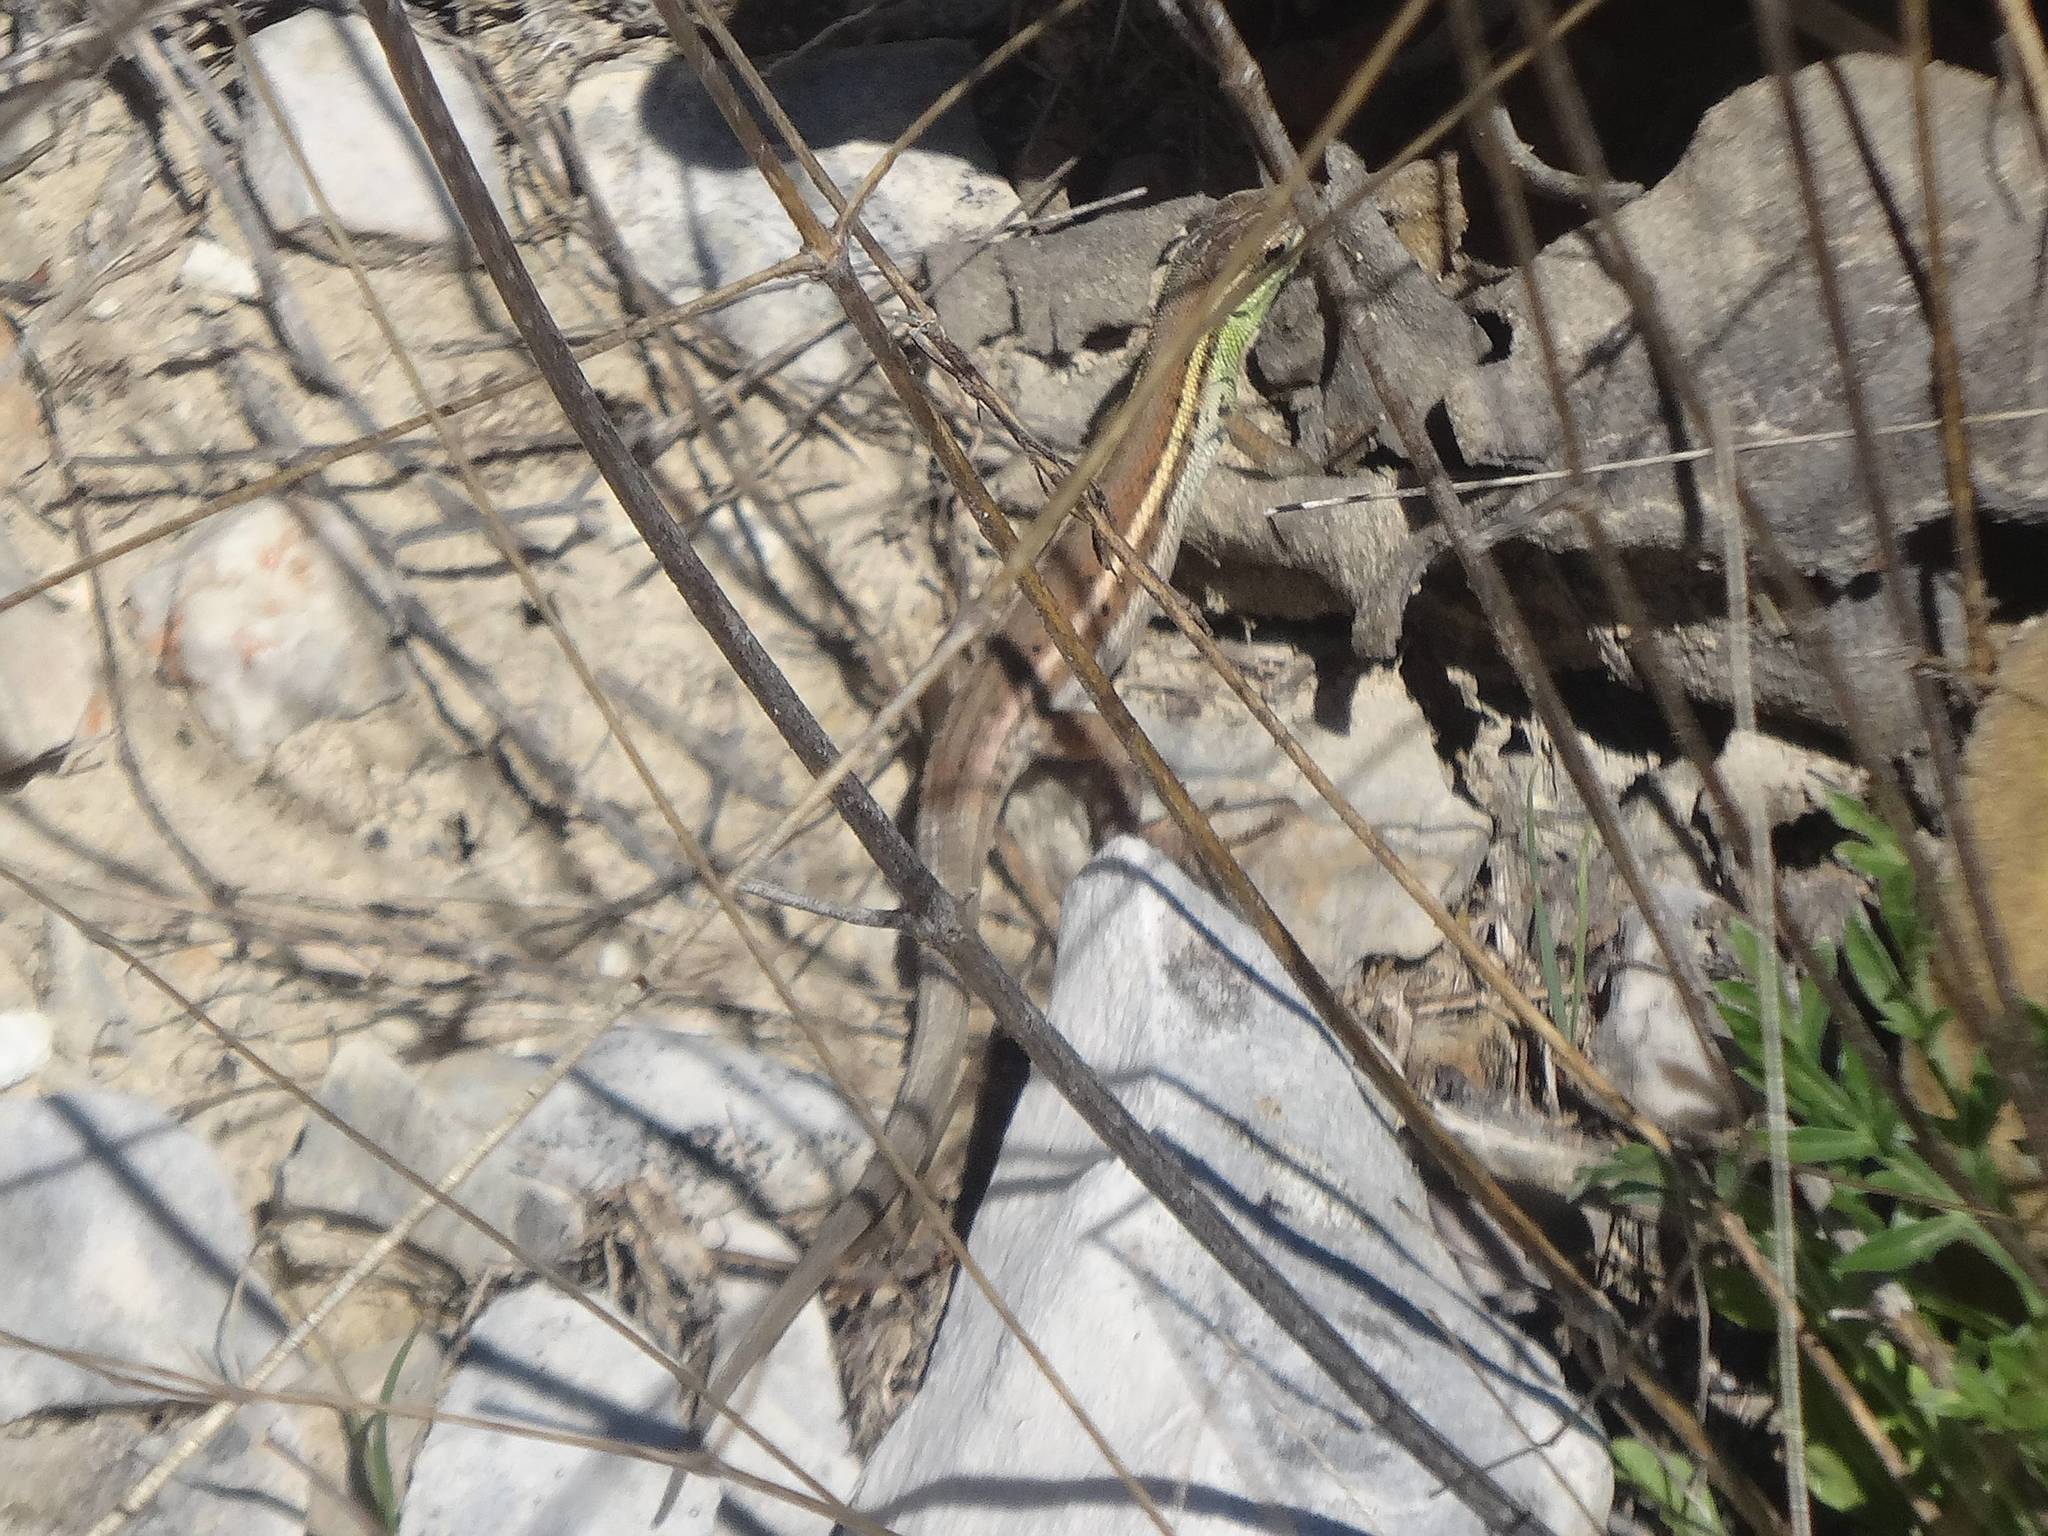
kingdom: Animalia
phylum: Chordata
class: Squamata
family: Lacertidae
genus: Ophisops
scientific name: Ophisops elegans
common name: Snake-eyed lizard
